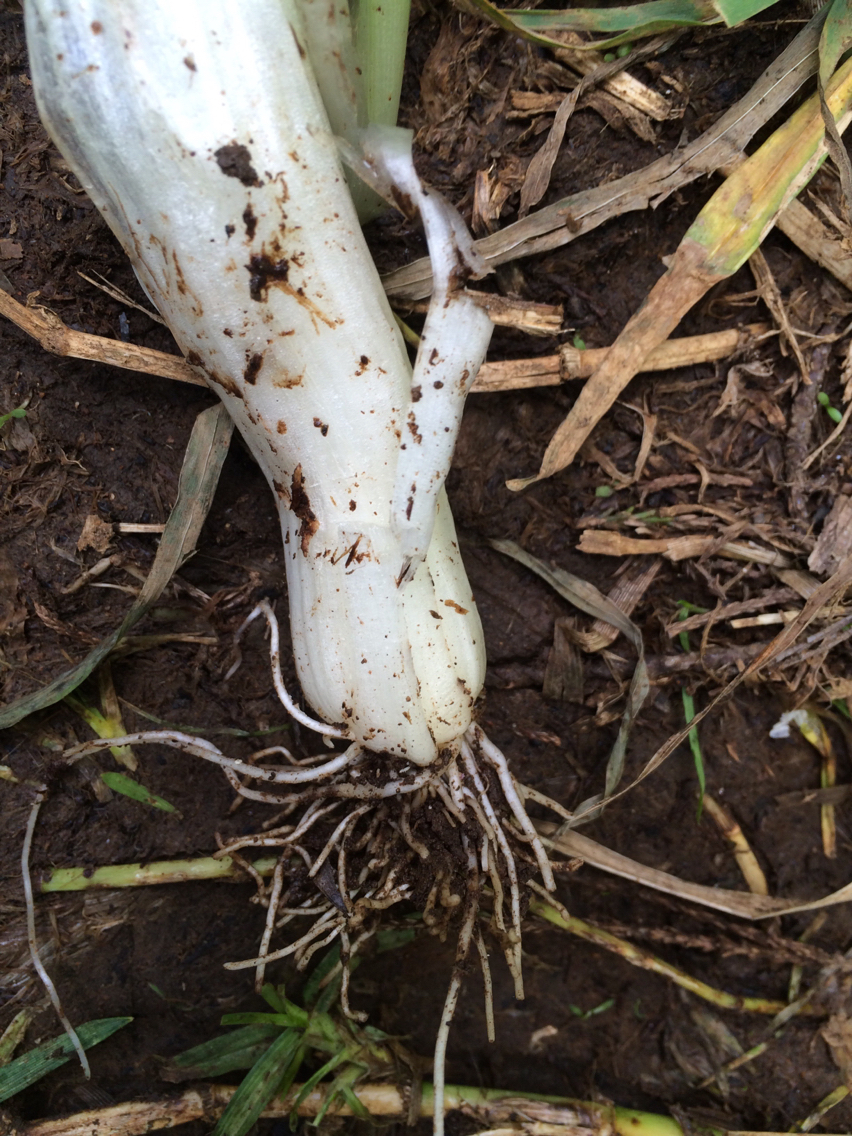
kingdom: Plantae
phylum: Tracheophyta
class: Liliopsida
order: Asparagales
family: Amaryllidaceae
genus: Allium
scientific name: Allium triquetrum
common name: Three-cornered garlic
